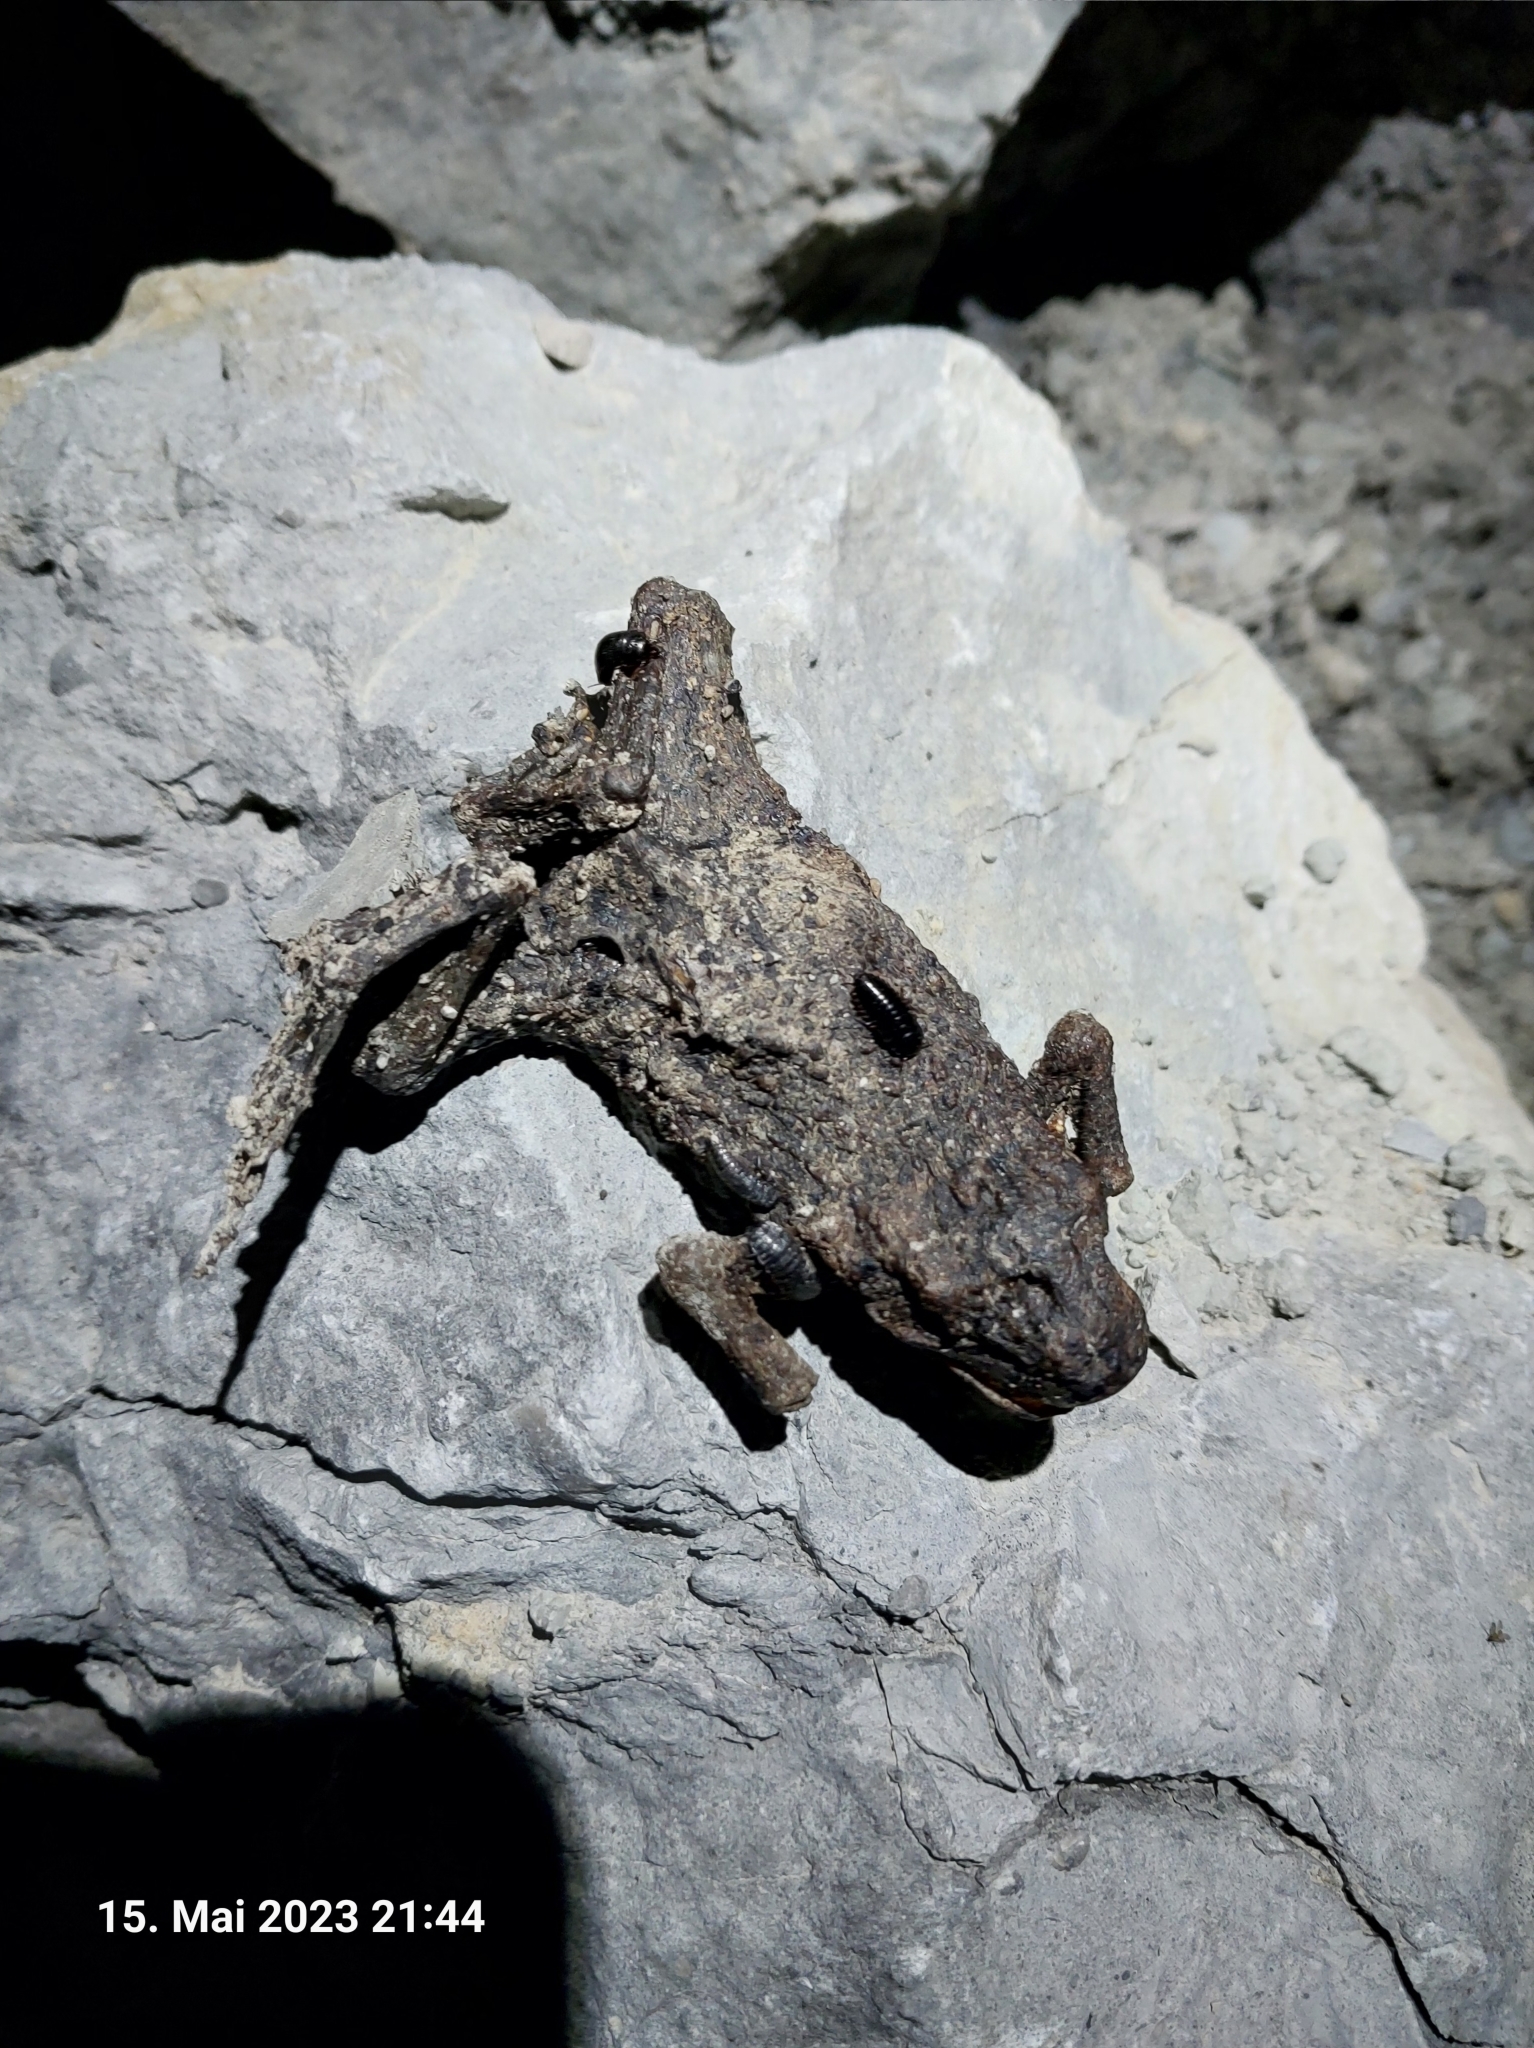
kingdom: Animalia
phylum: Chordata
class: Amphibia
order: Anura
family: Bufonidae
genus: Bufo
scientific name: Bufo bufo
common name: Common toad
